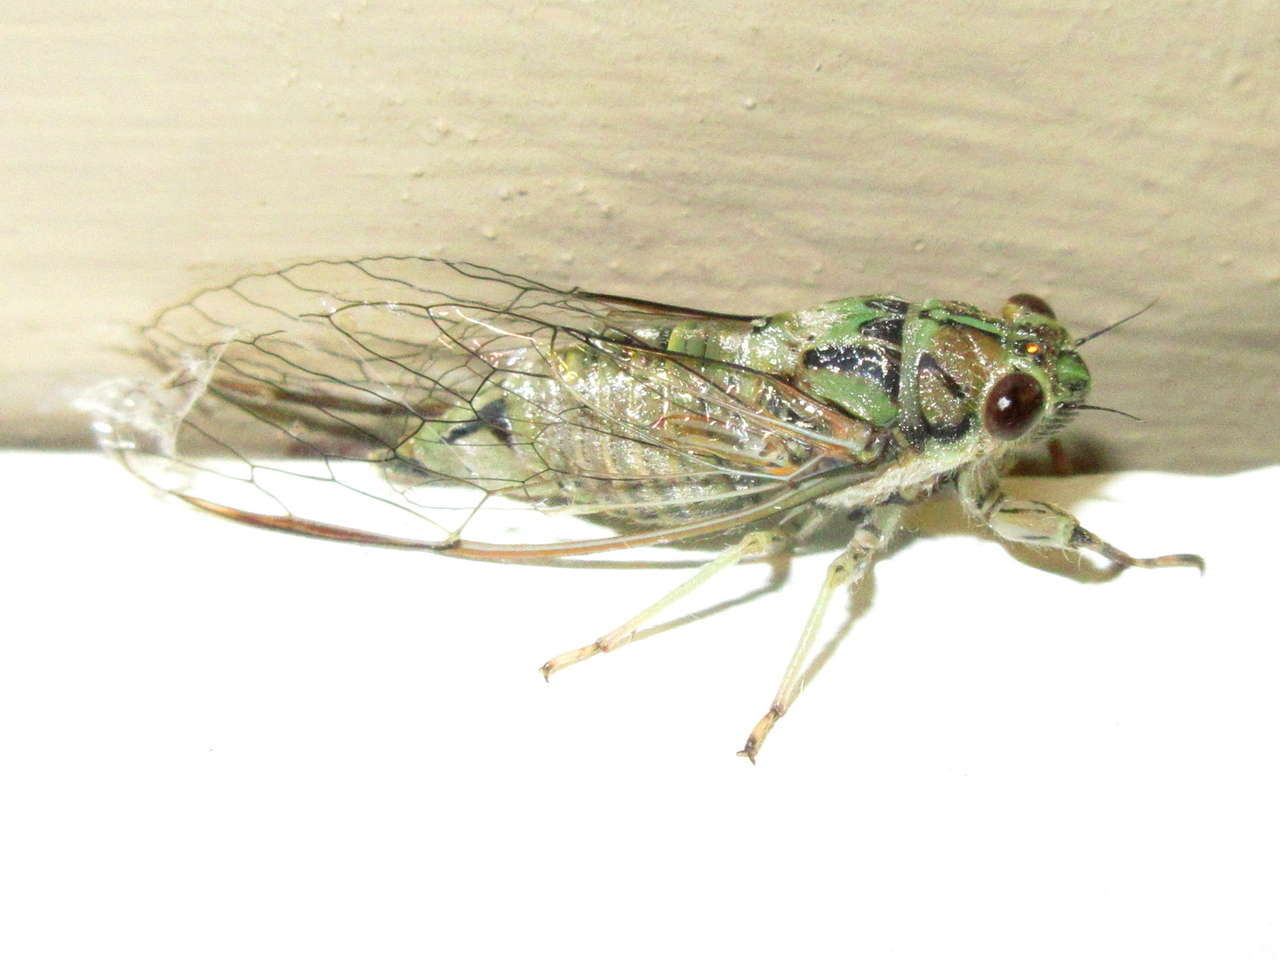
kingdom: Animalia
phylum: Arthropoda
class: Insecta
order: Hemiptera
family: Cicadidae
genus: Yoyetta
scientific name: Yoyetta celis
